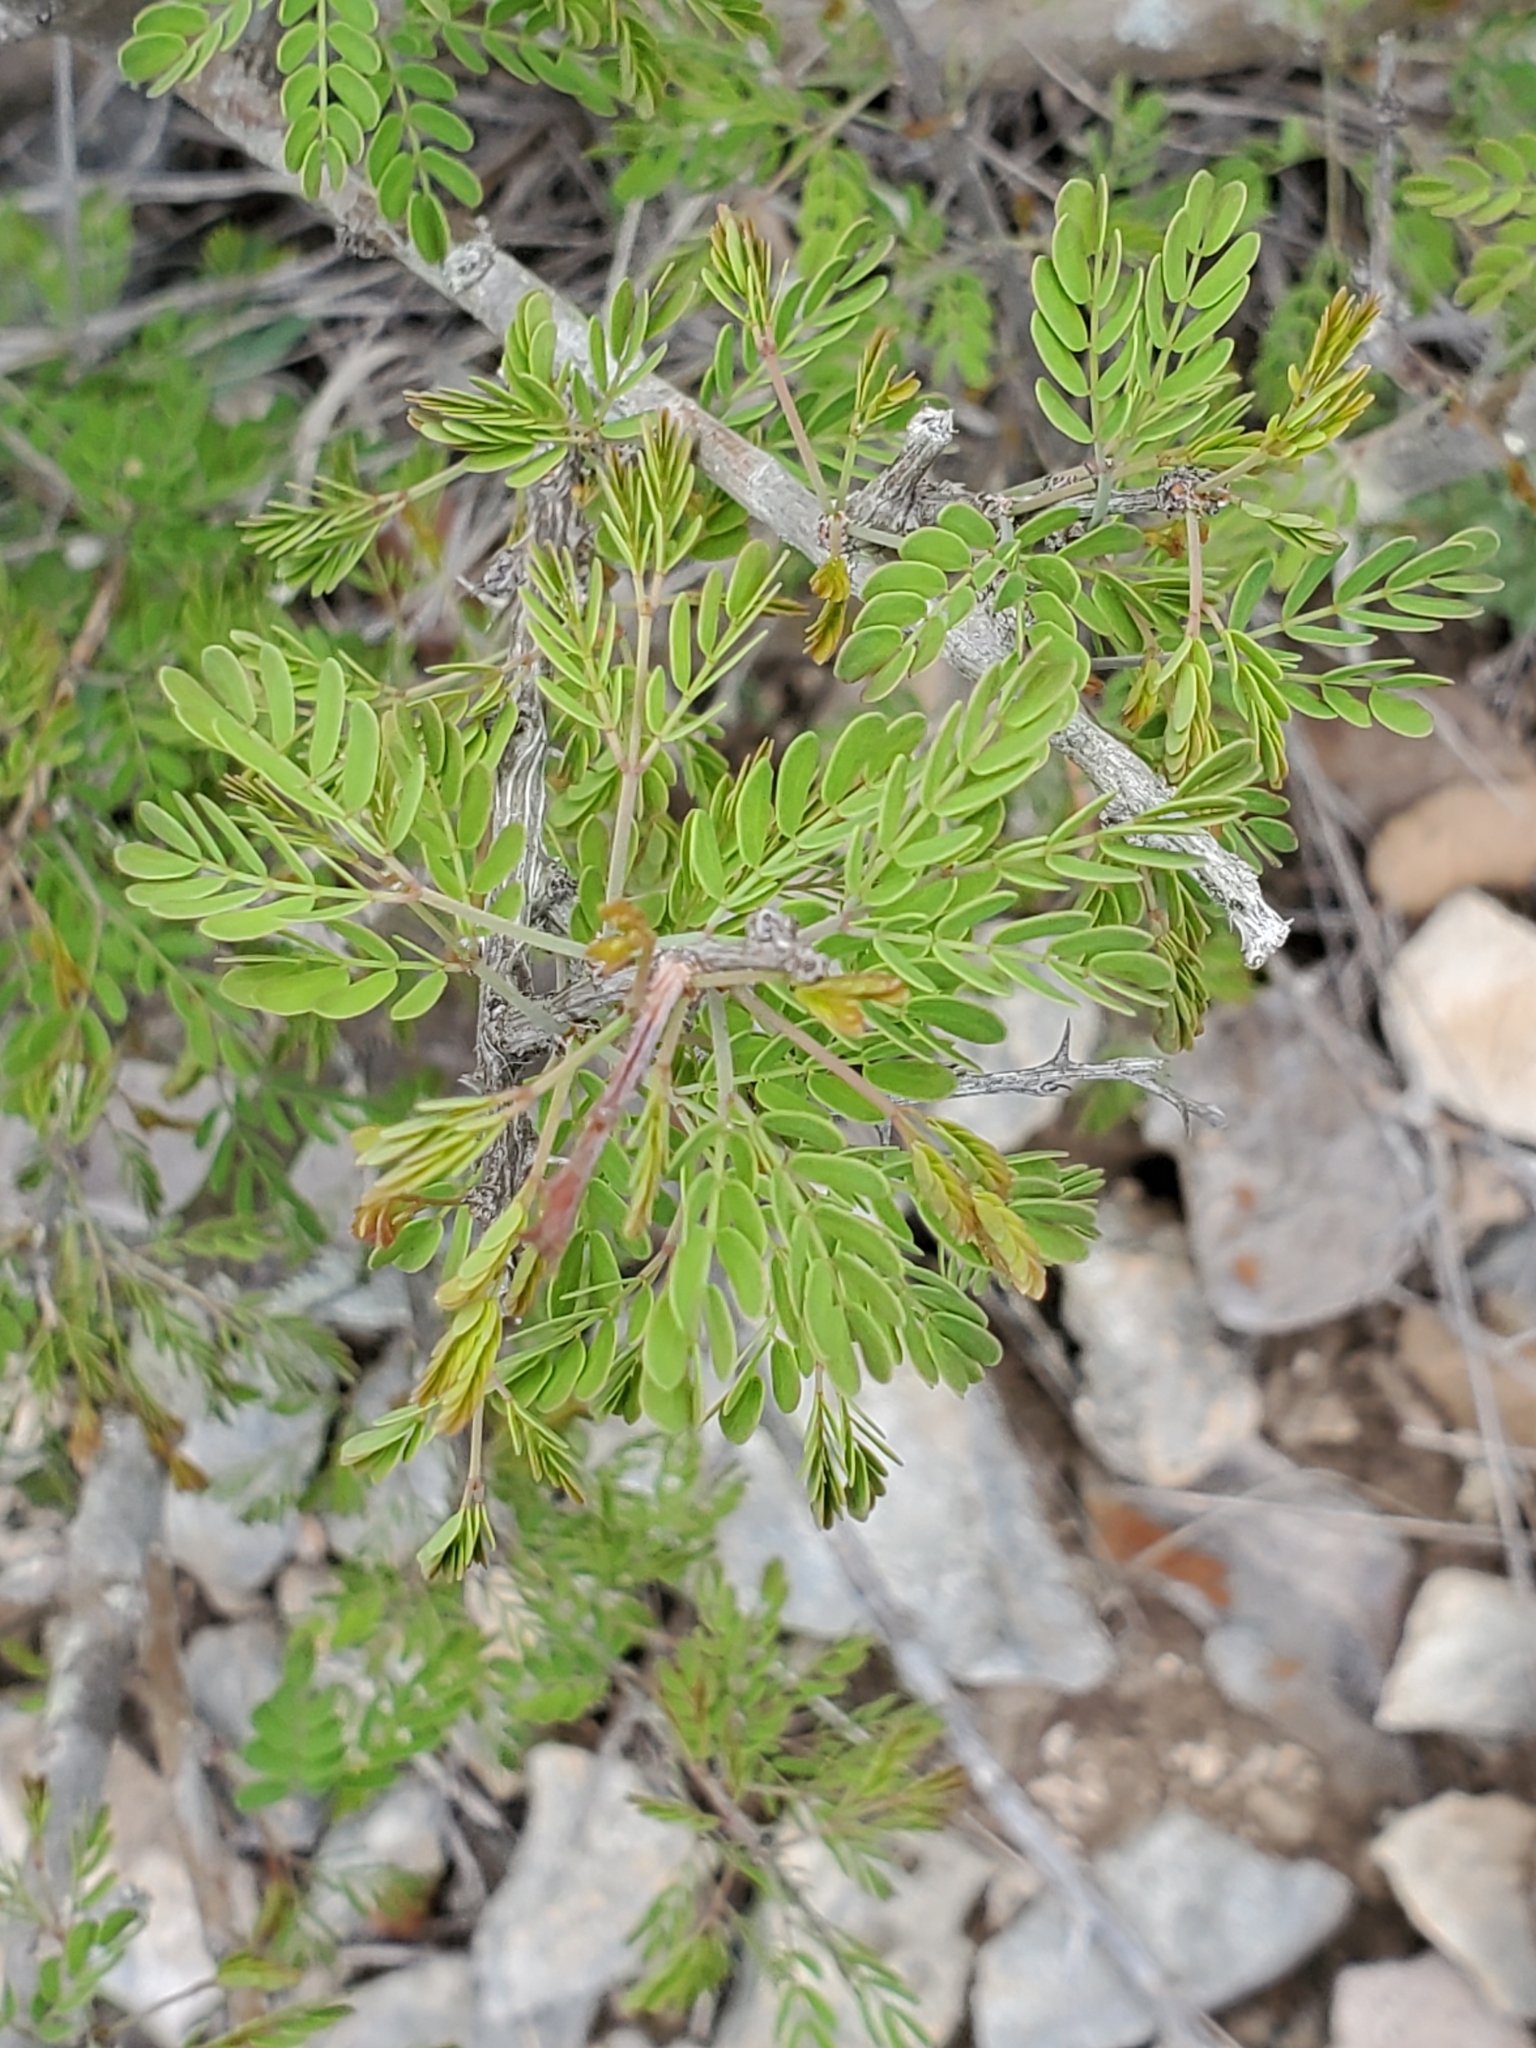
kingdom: Plantae
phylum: Tracheophyta
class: Magnoliopsida
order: Fabales
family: Fabaceae
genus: Mimosa
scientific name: Mimosa borealis
